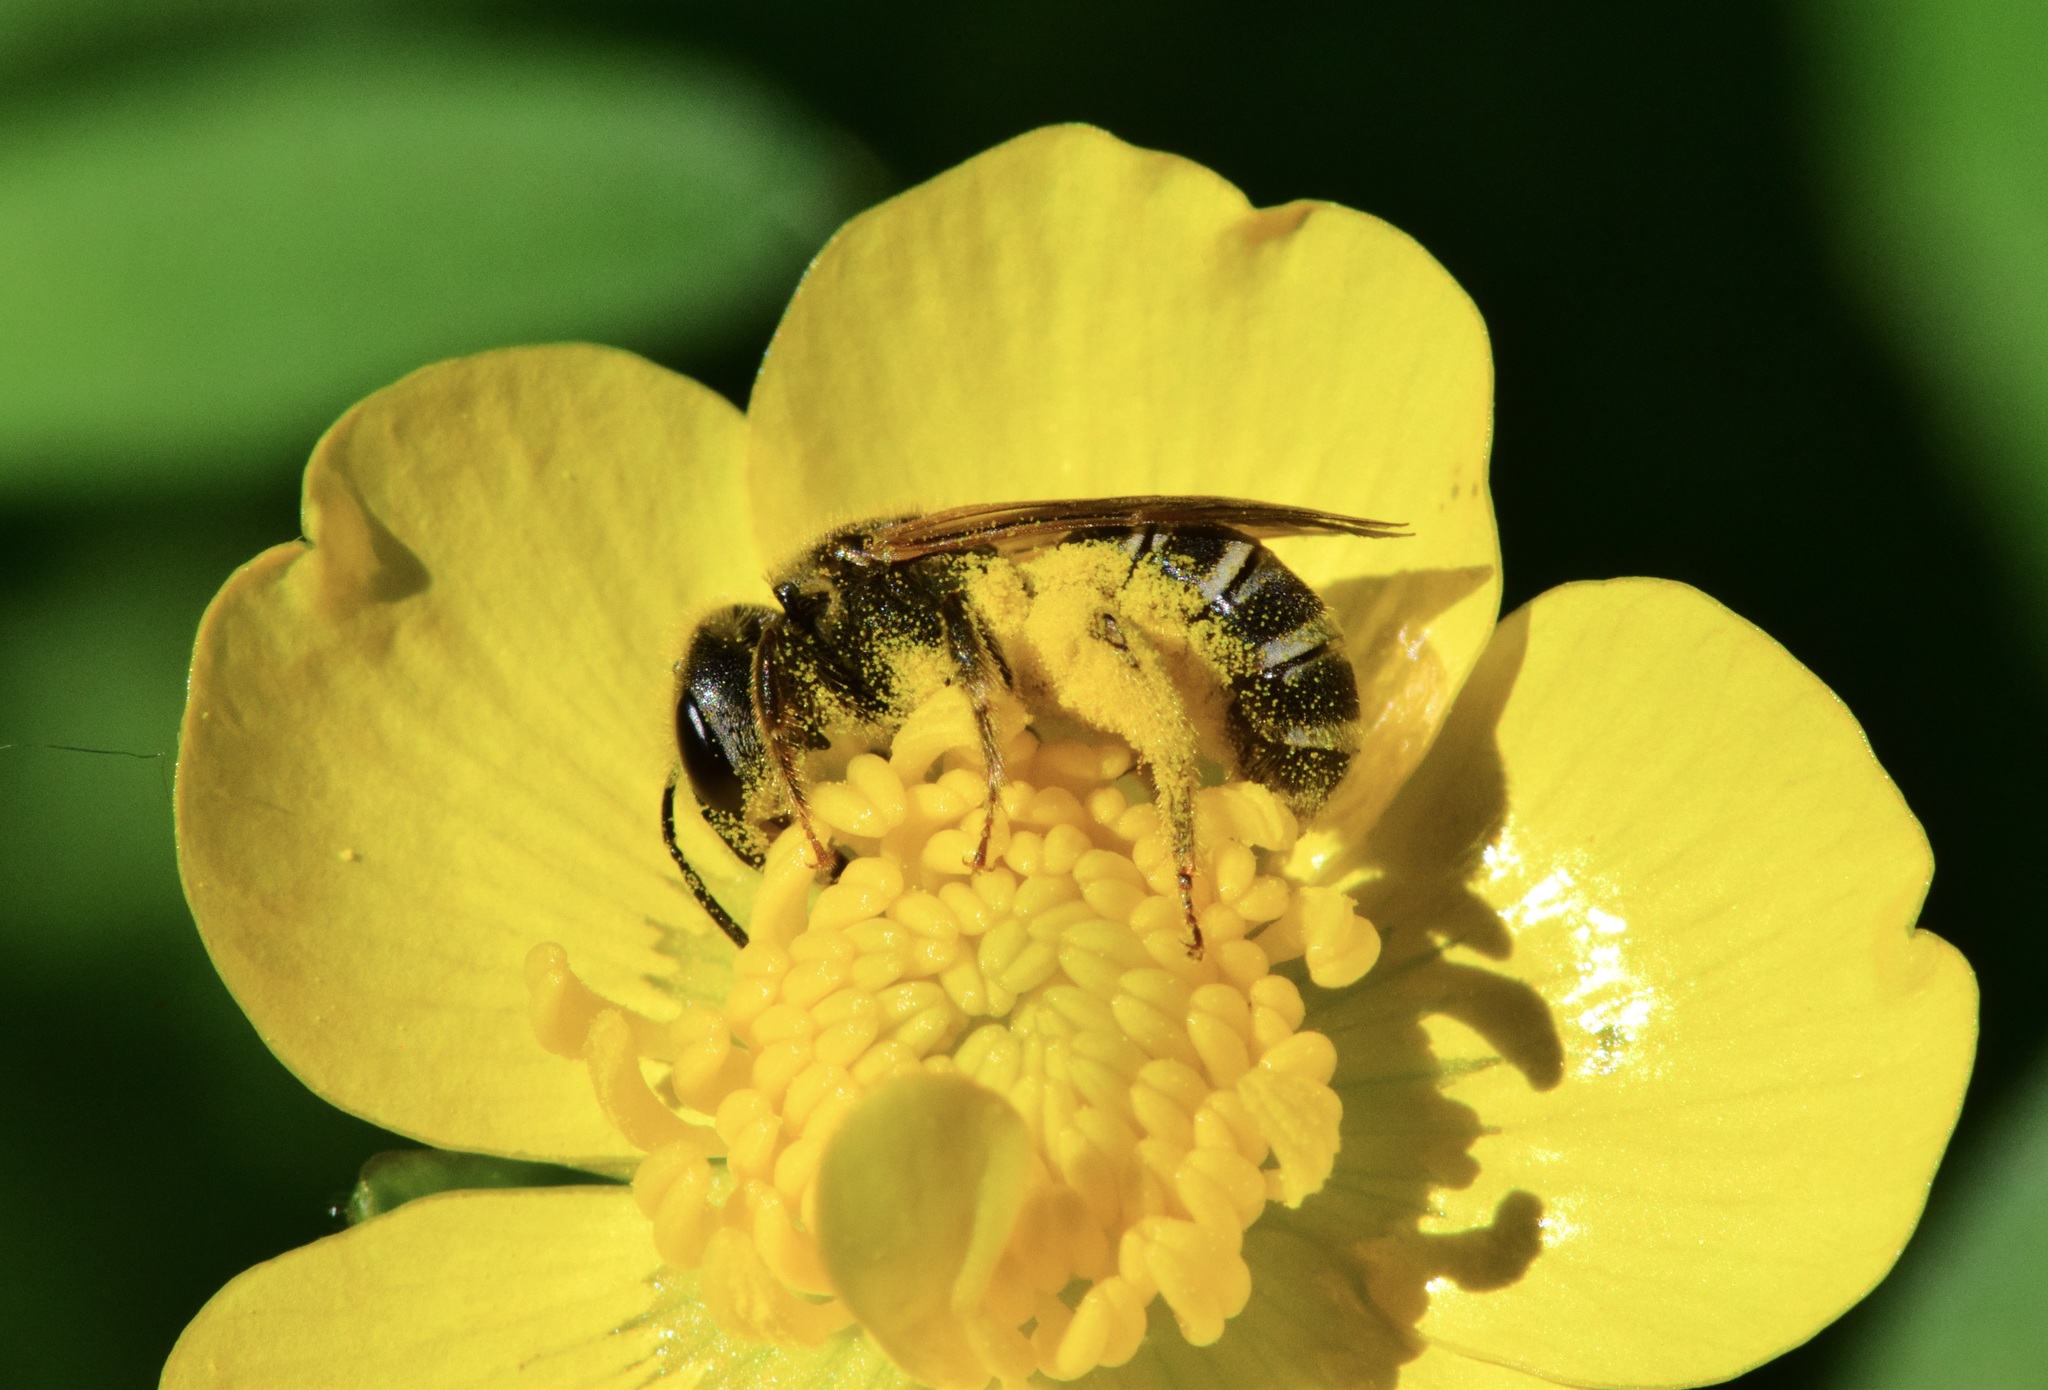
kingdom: Animalia
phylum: Arthropoda
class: Insecta
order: Hymenoptera
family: Halictidae
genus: Halictus
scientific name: Halictus ligatus
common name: Ligated furrow bee
